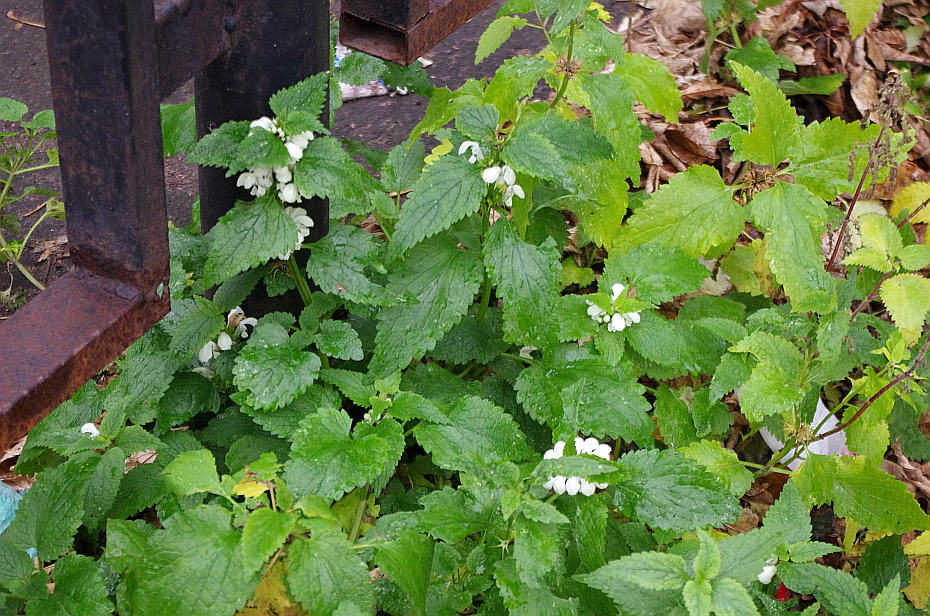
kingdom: Plantae
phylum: Tracheophyta
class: Magnoliopsida
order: Lamiales
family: Lamiaceae
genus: Lamium
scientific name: Lamium album
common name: White dead-nettle
